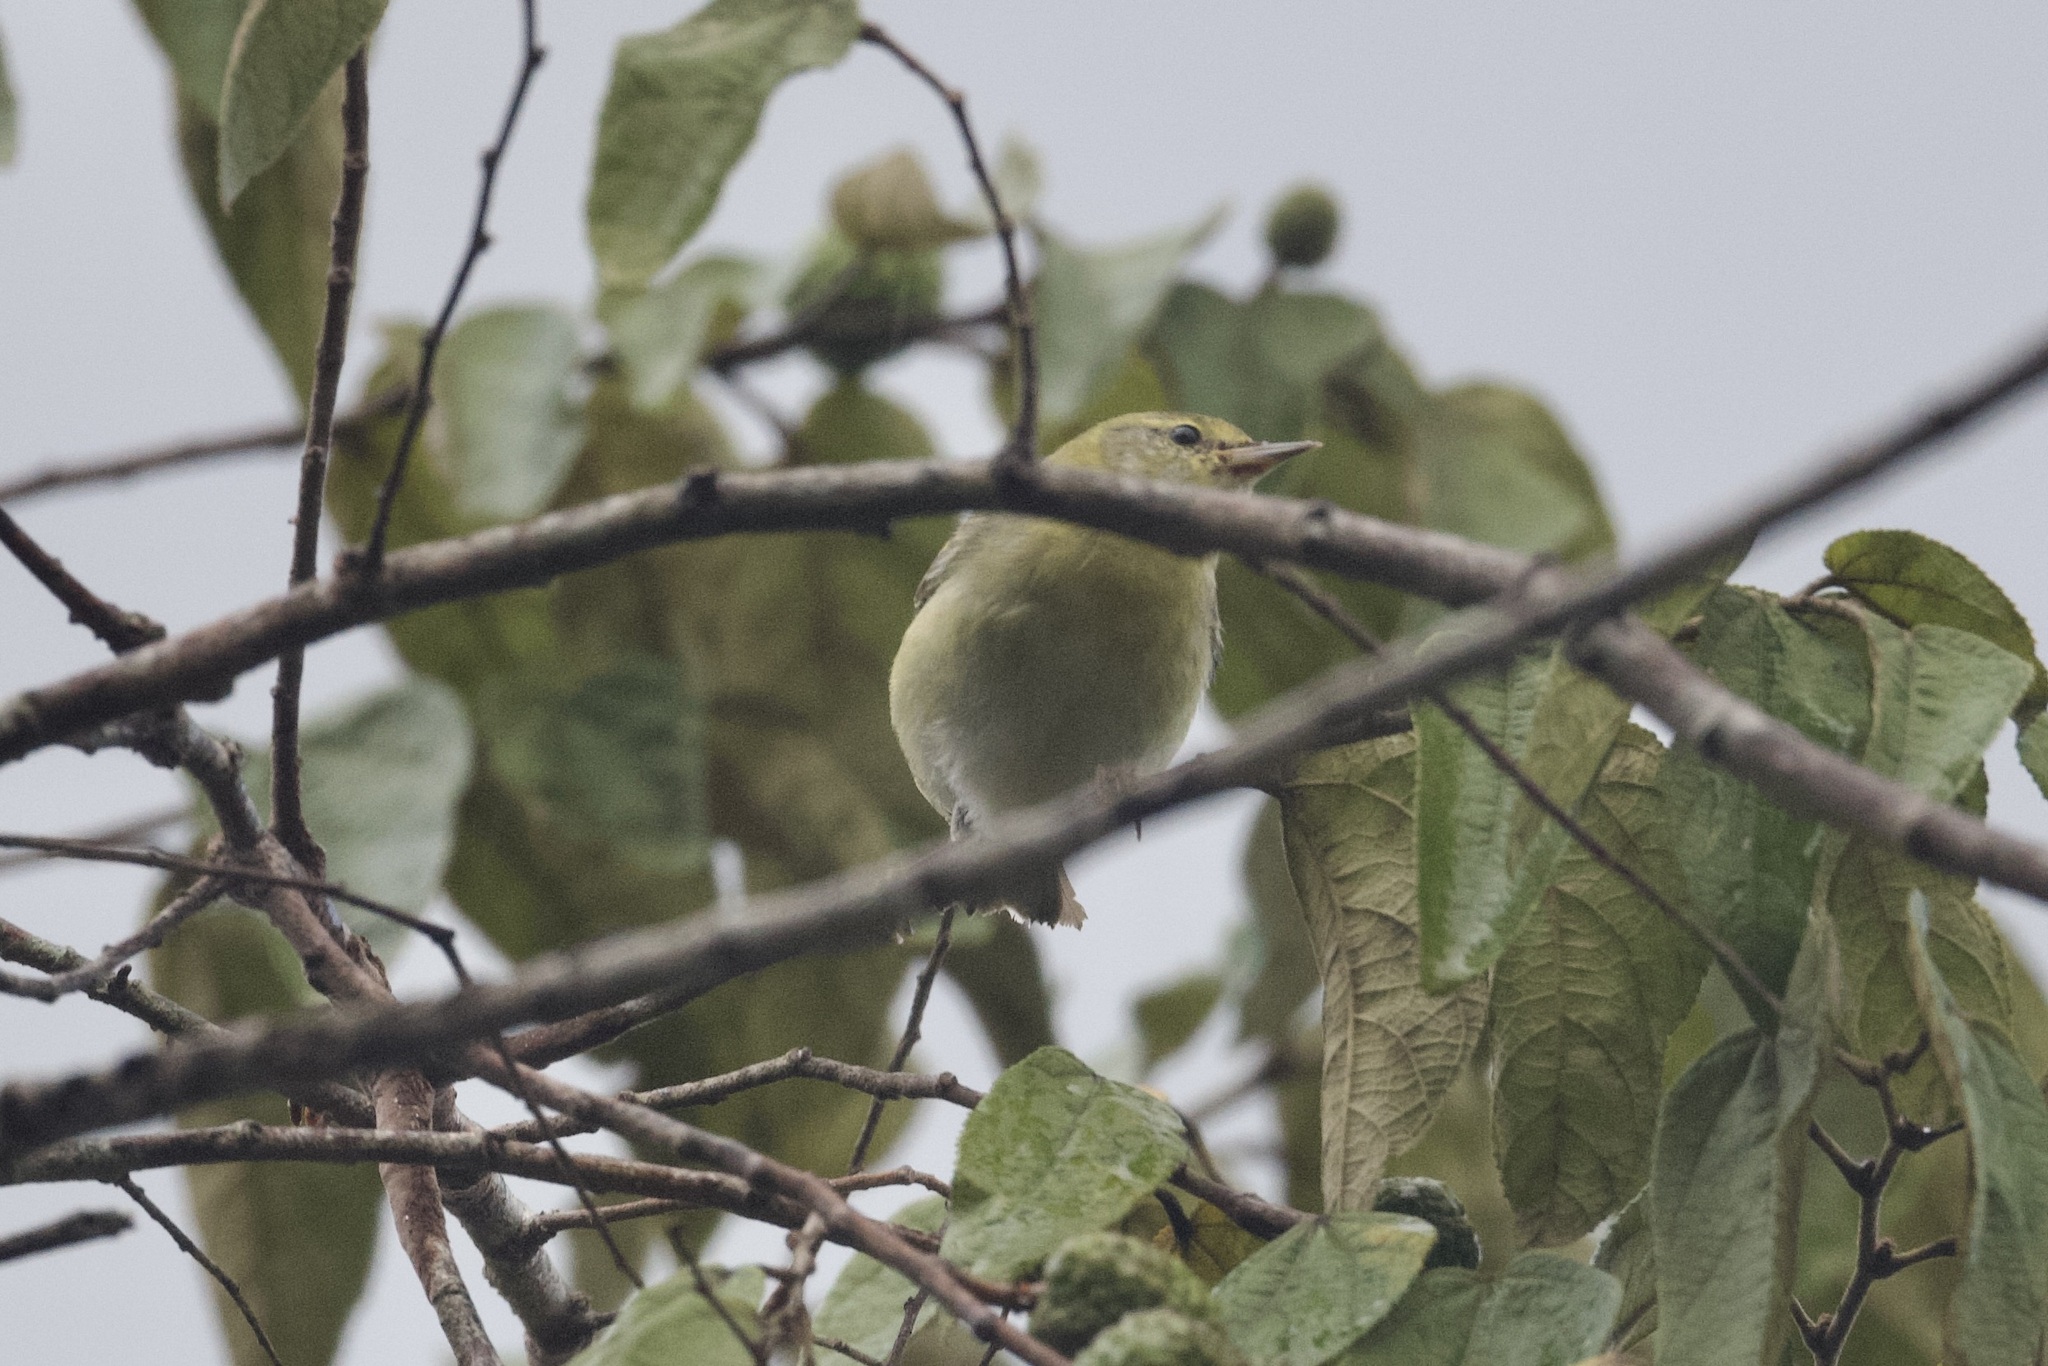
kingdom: Animalia
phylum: Chordata
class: Aves
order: Passeriformes
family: Parulidae
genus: Leiothlypis
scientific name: Leiothlypis peregrina
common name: Tennessee warbler
